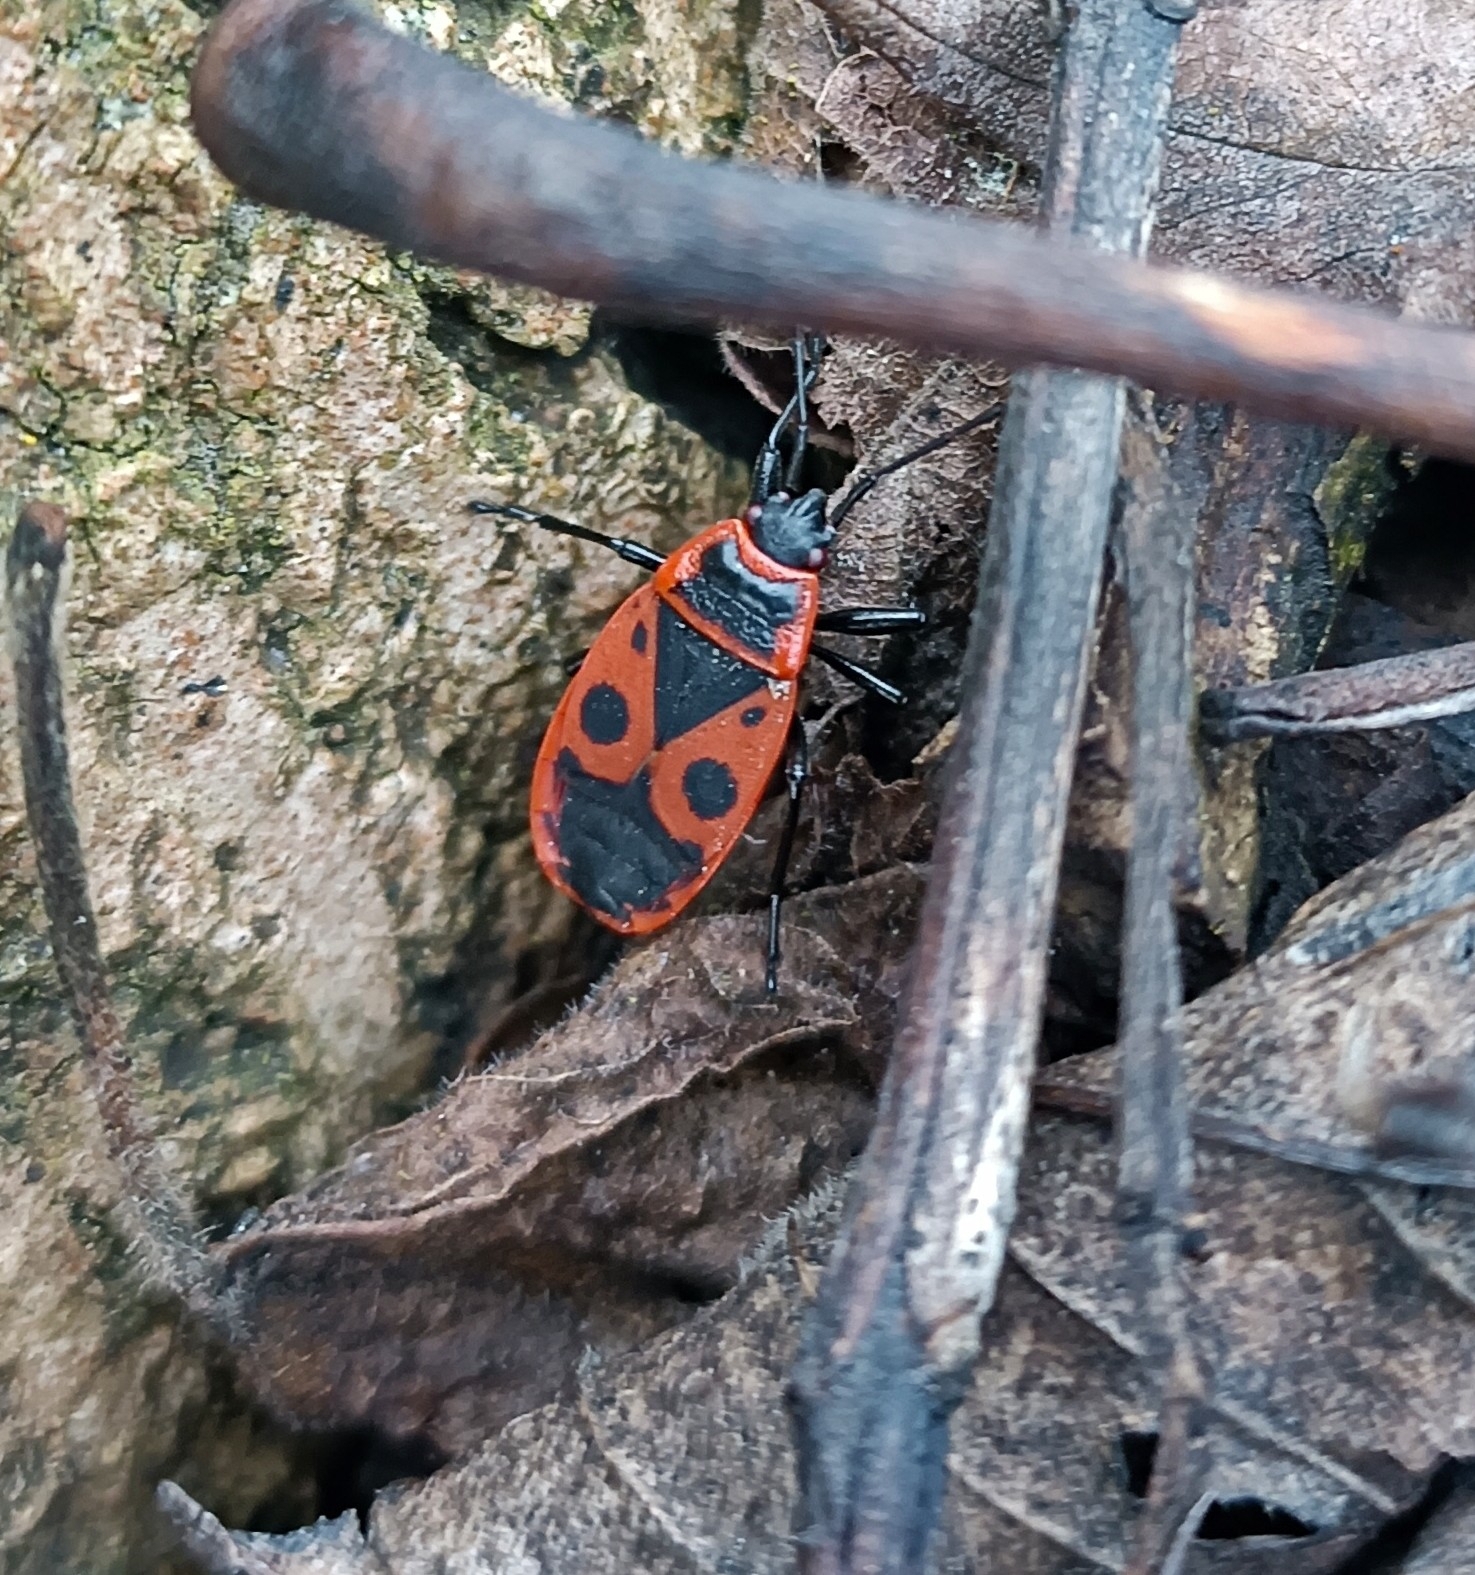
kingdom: Animalia
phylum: Arthropoda
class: Insecta
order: Hemiptera
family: Pyrrhocoridae
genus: Pyrrhocoris
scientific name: Pyrrhocoris apterus
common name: Firebug
